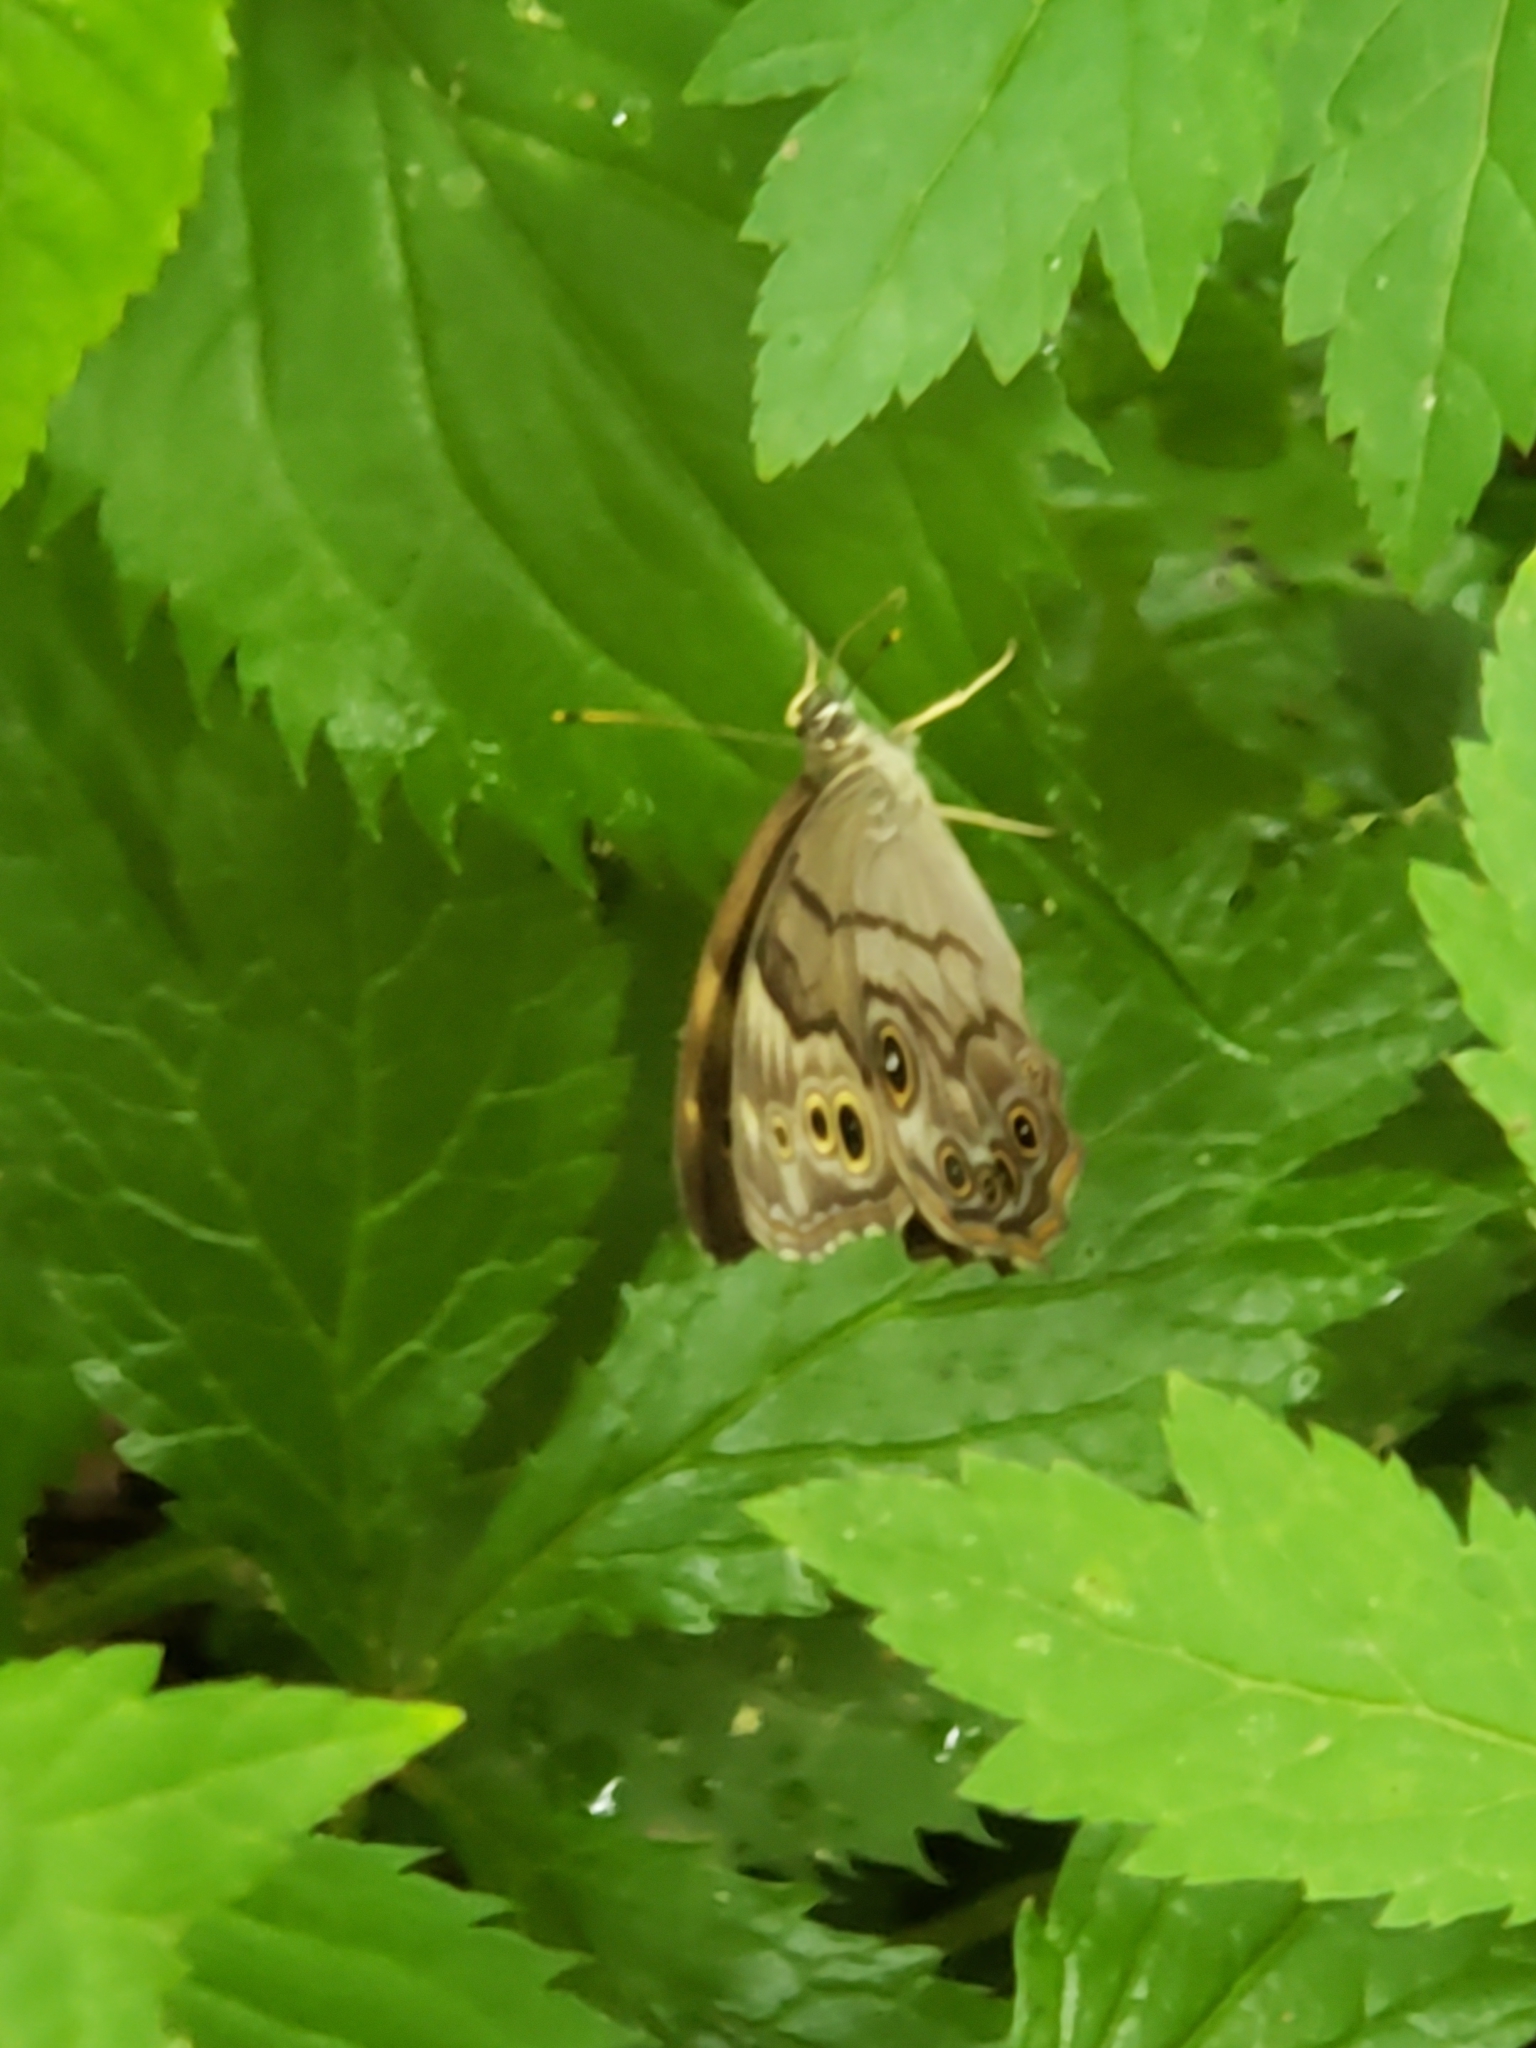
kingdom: Animalia
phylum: Arthropoda
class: Insecta
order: Lepidoptera
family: Nymphalidae
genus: Lethe
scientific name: Lethe anthedon
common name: Northern pearly-eye
